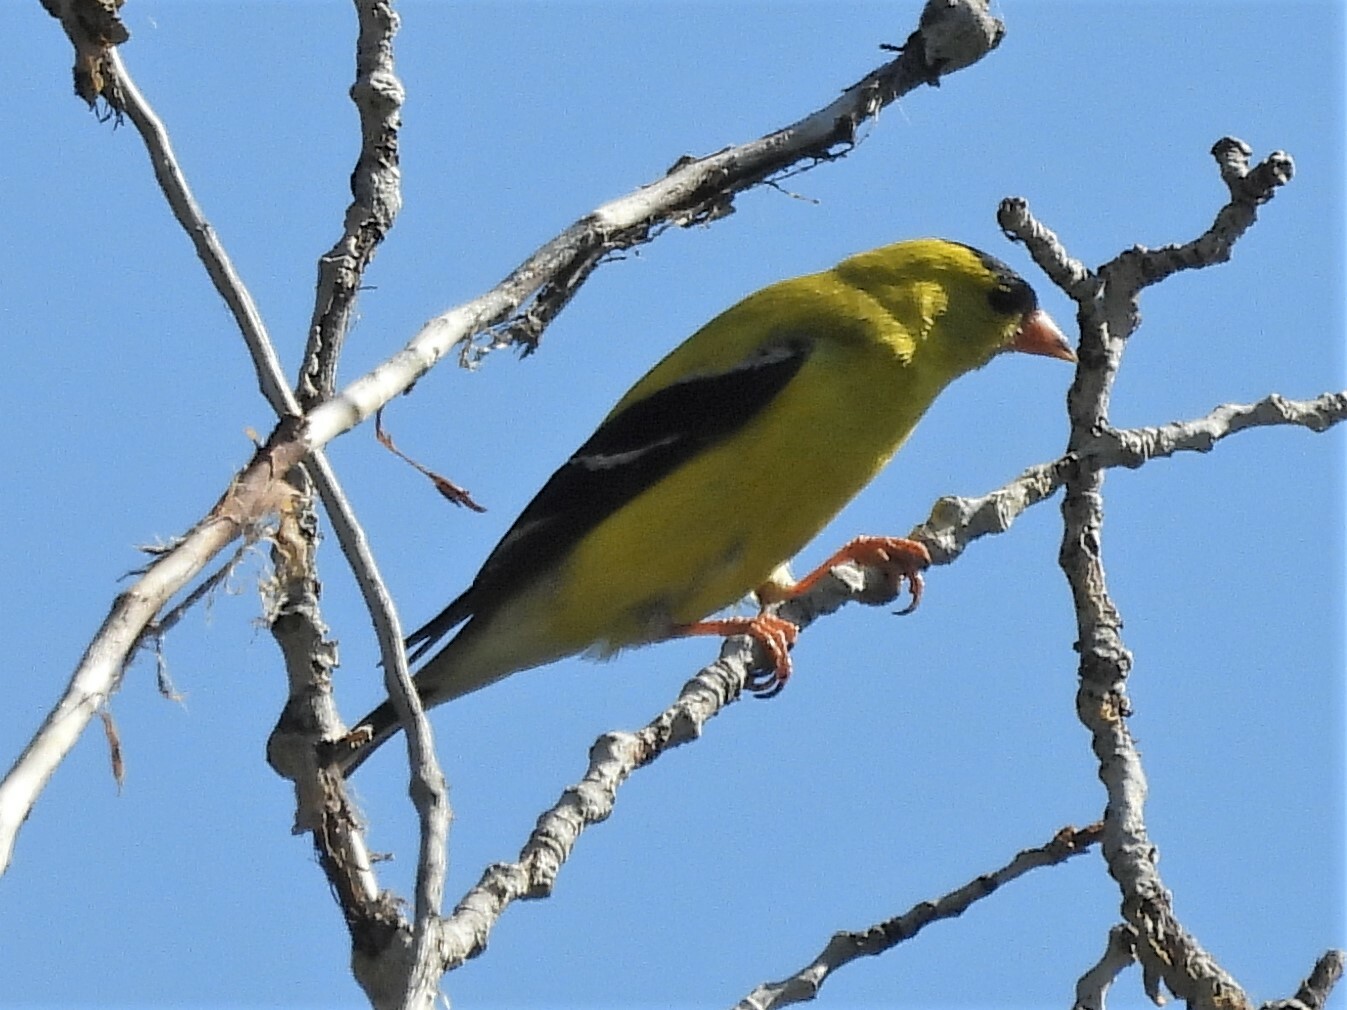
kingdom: Animalia
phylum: Chordata
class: Aves
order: Passeriformes
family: Fringillidae
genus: Spinus
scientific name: Spinus tristis
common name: American goldfinch
